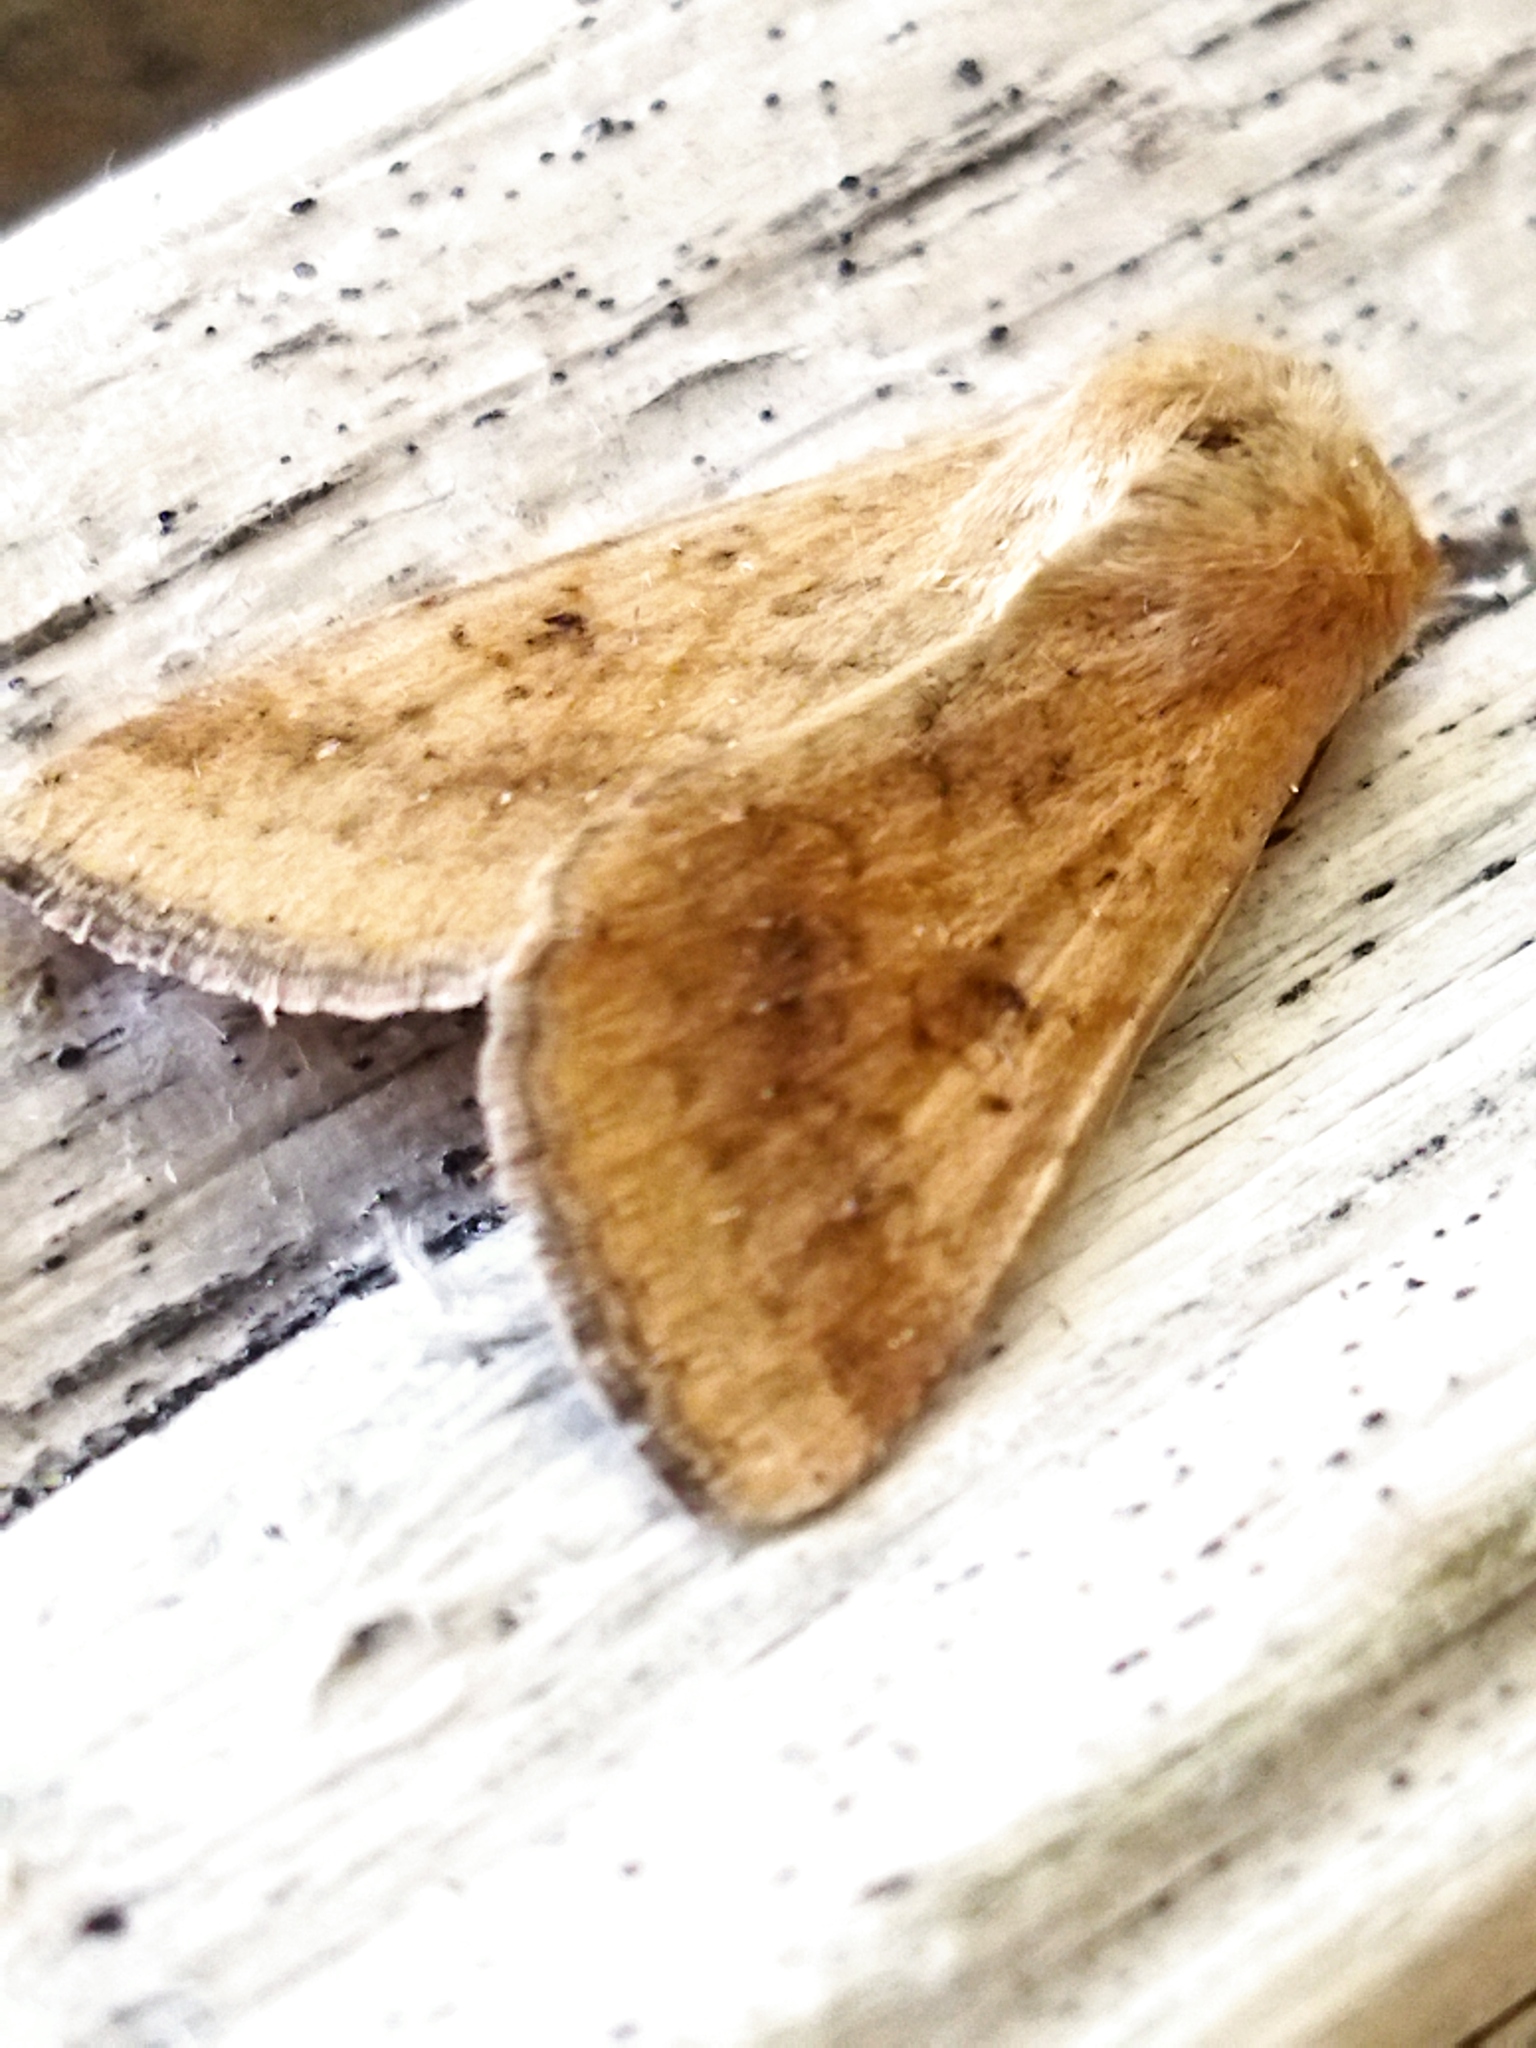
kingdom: Animalia
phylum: Arthropoda
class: Insecta
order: Lepidoptera
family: Noctuidae
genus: Helicoverpa
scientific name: Helicoverpa armigera
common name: Cotton bollworm
